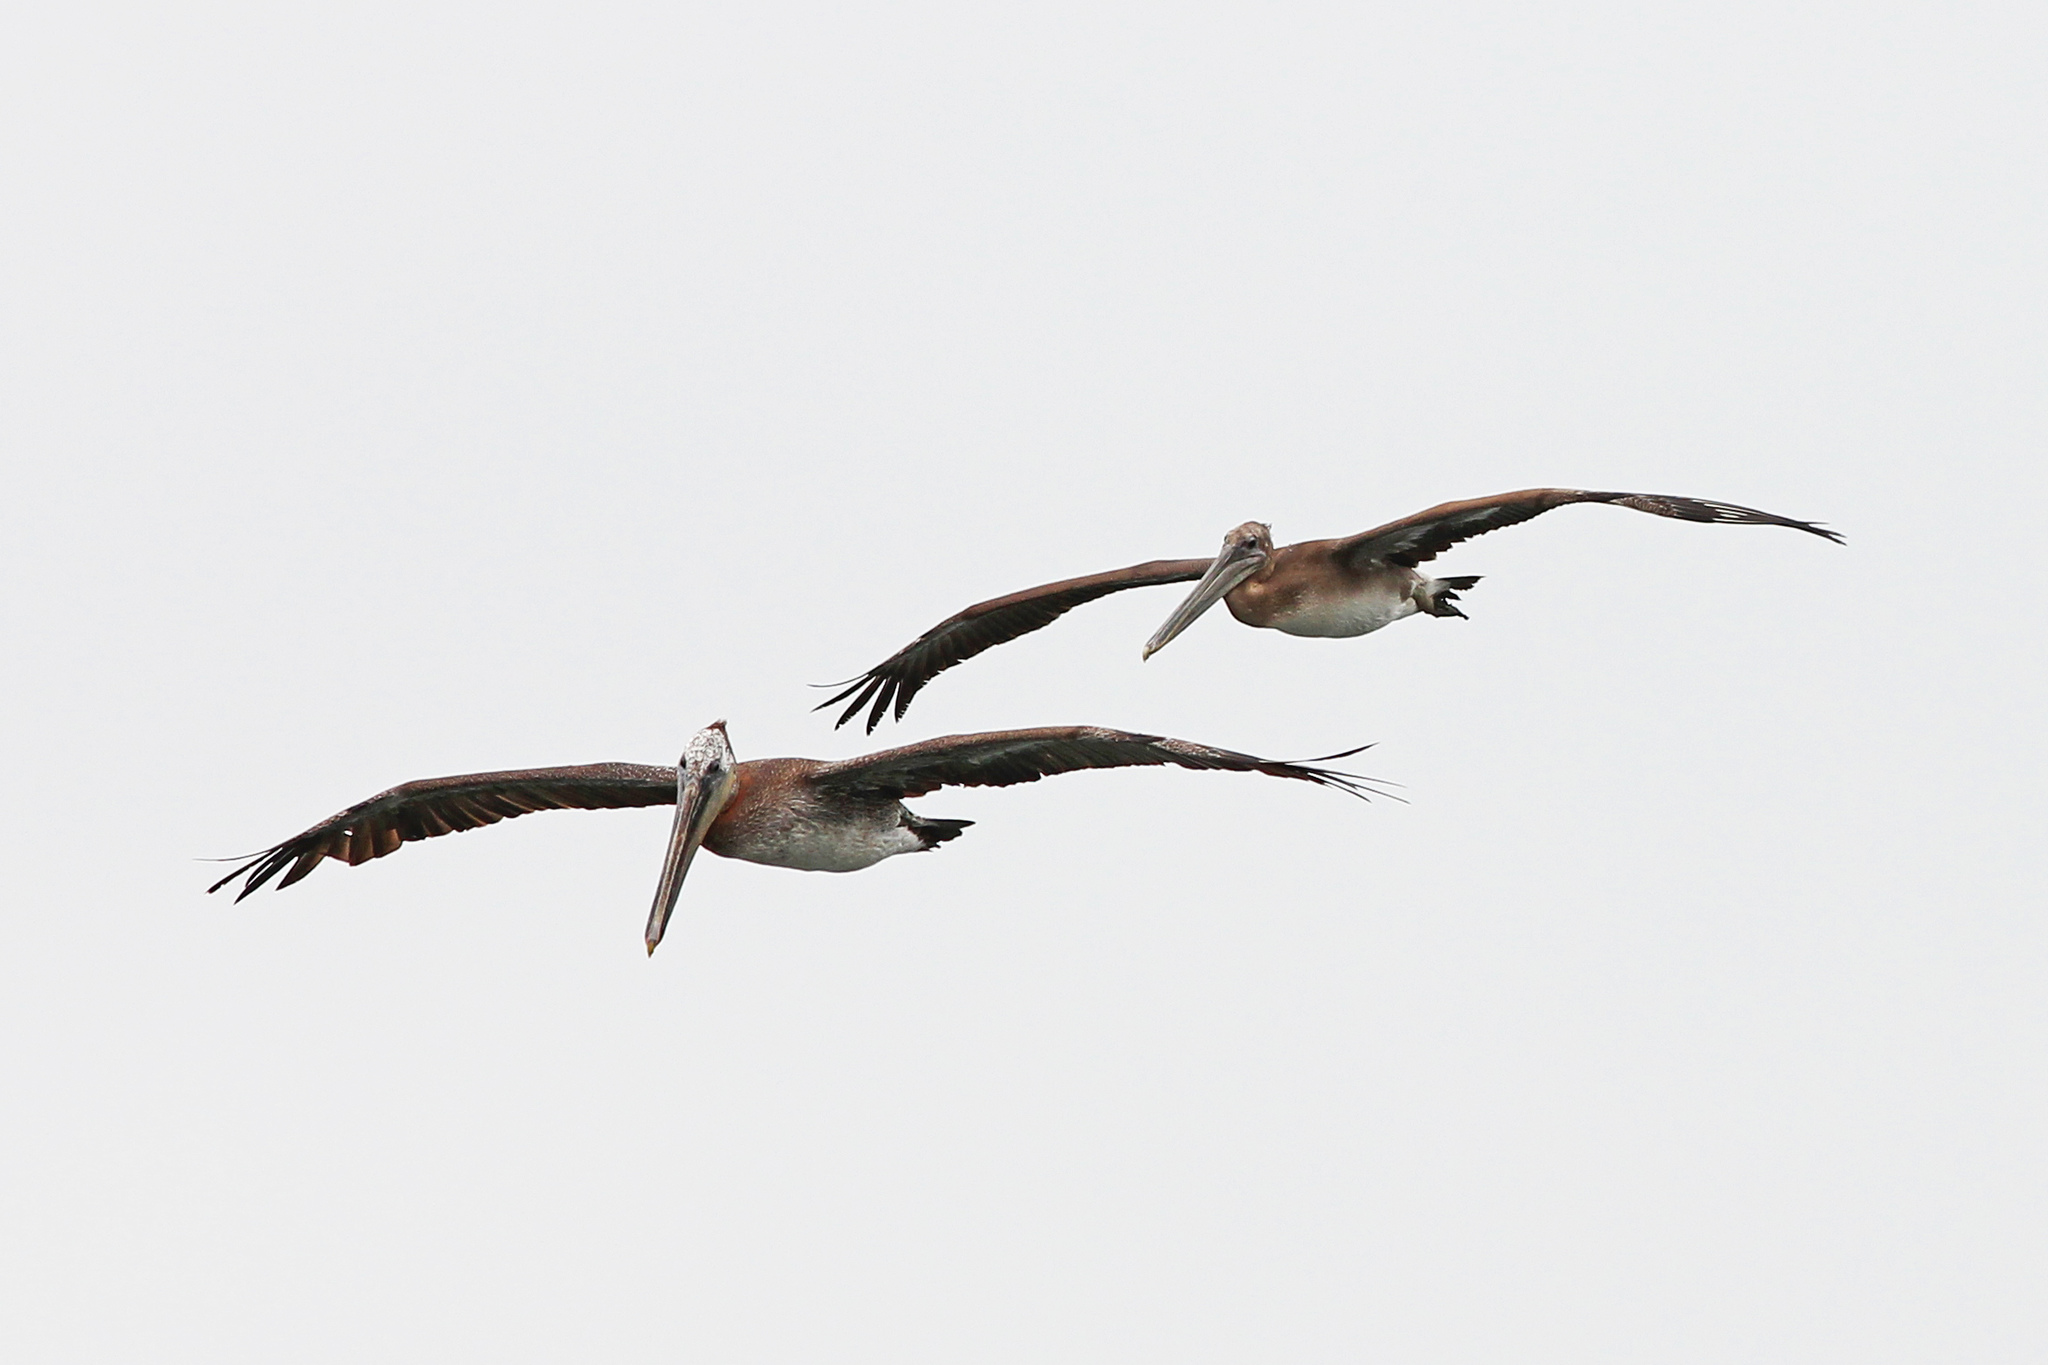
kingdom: Animalia
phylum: Chordata
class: Aves
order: Pelecaniformes
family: Pelecanidae
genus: Pelecanus
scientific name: Pelecanus occidentalis
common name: Brown pelican
